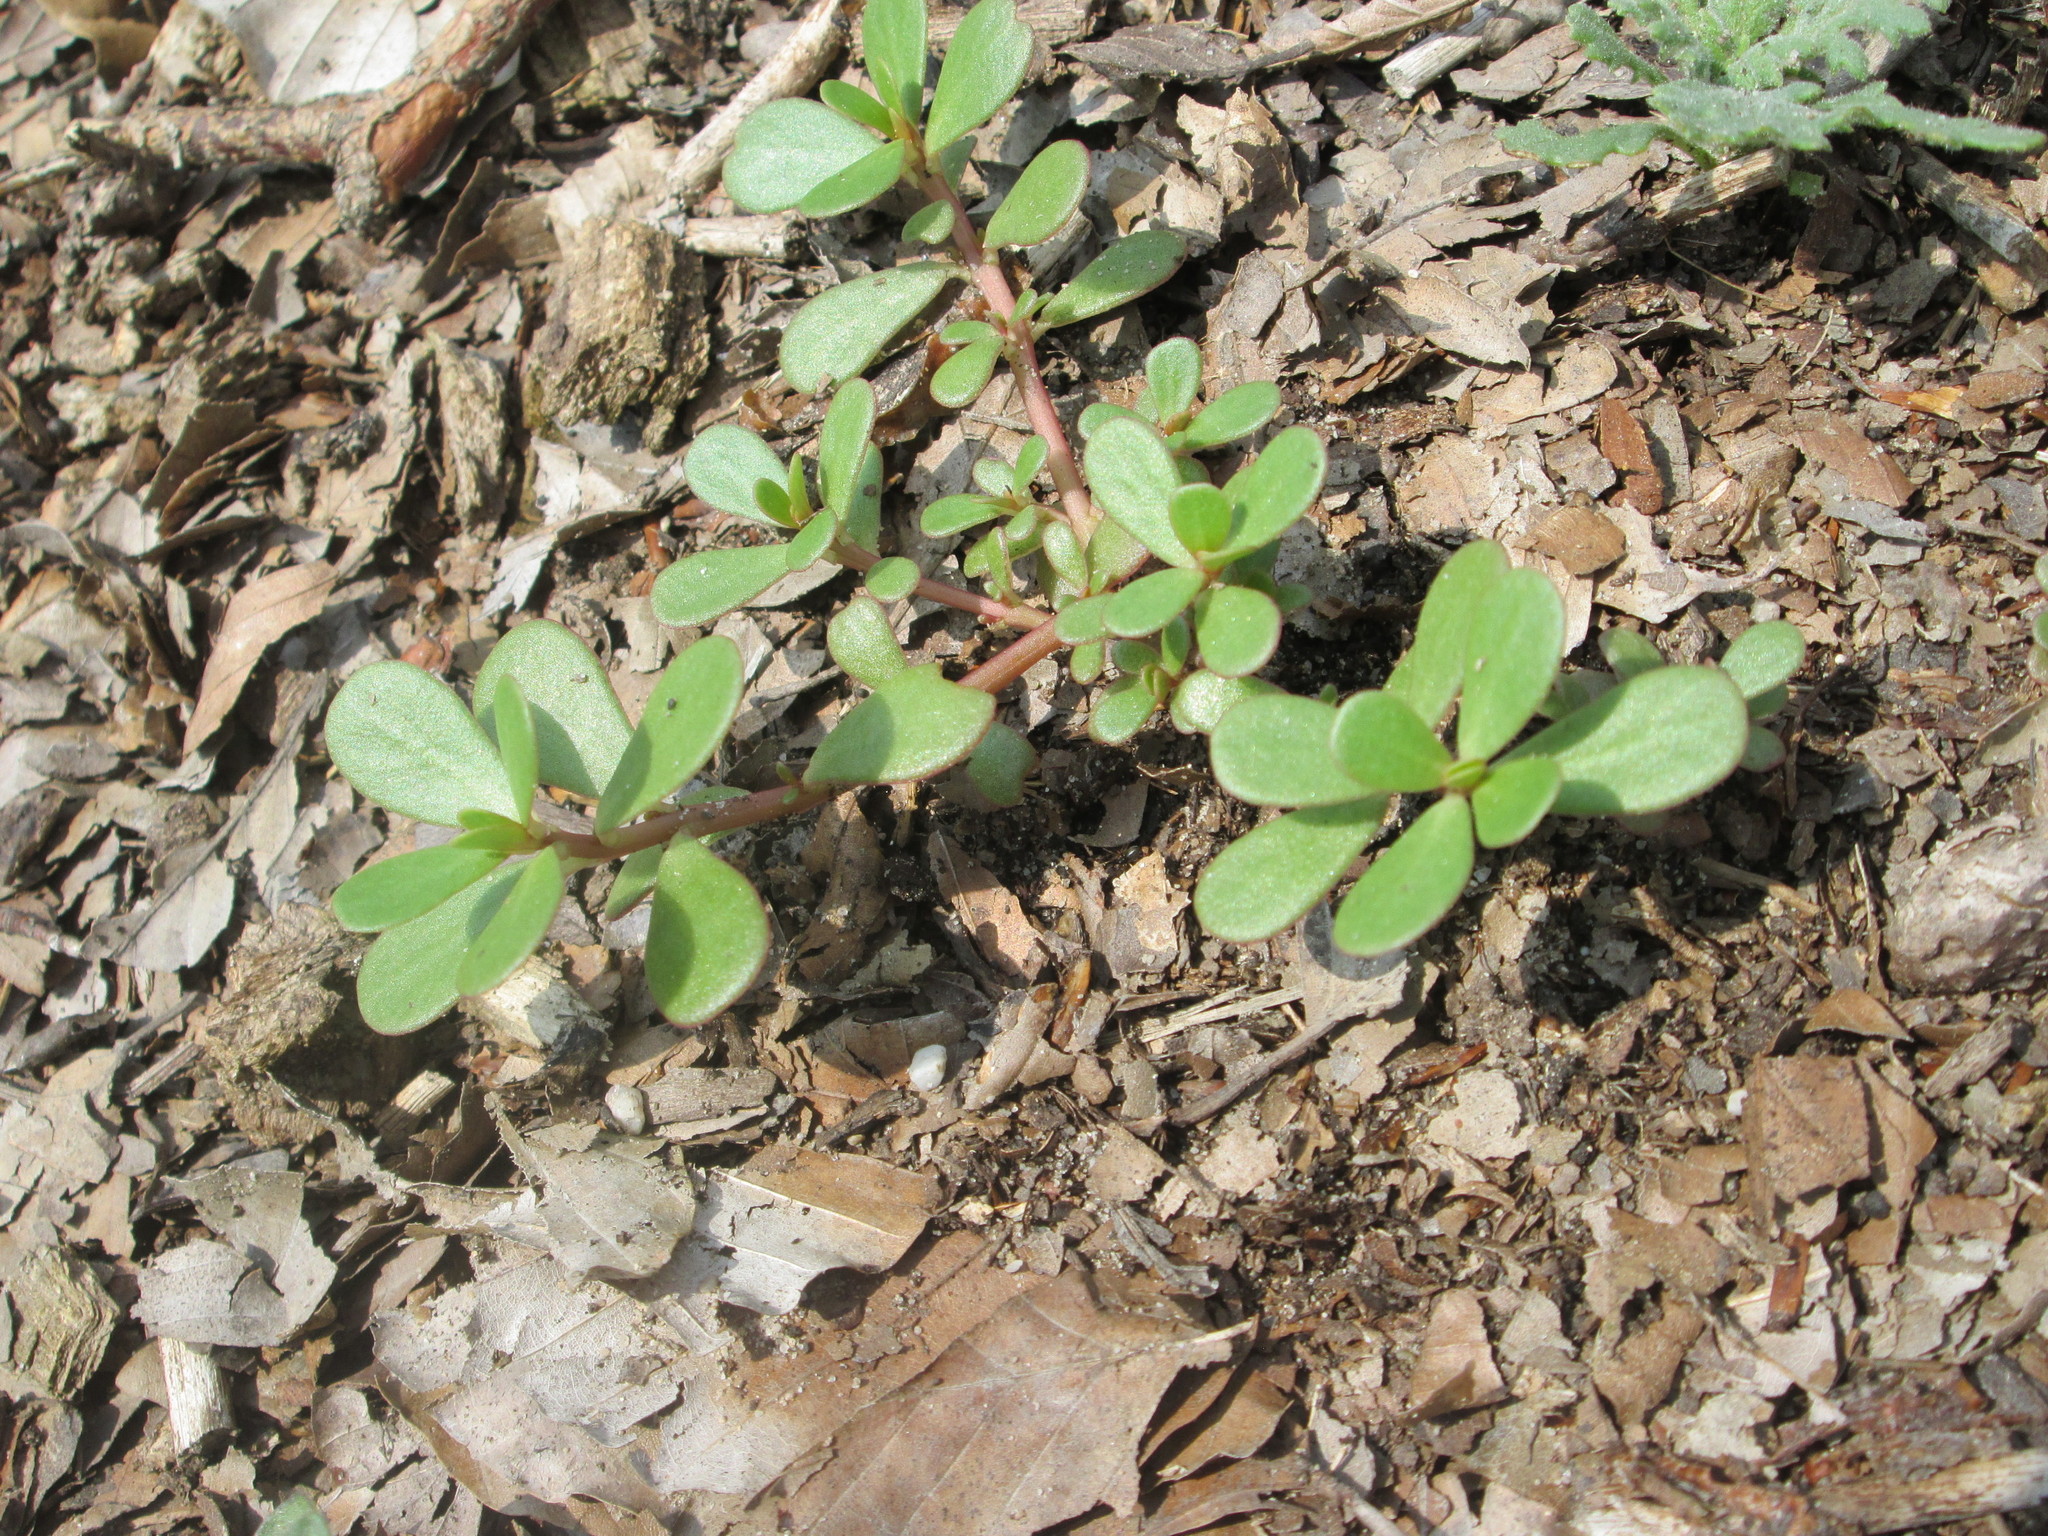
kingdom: Plantae
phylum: Tracheophyta
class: Magnoliopsida
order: Caryophyllales
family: Portulacaceae
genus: Portulaca
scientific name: Portulaca oleracea
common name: Common purslane
